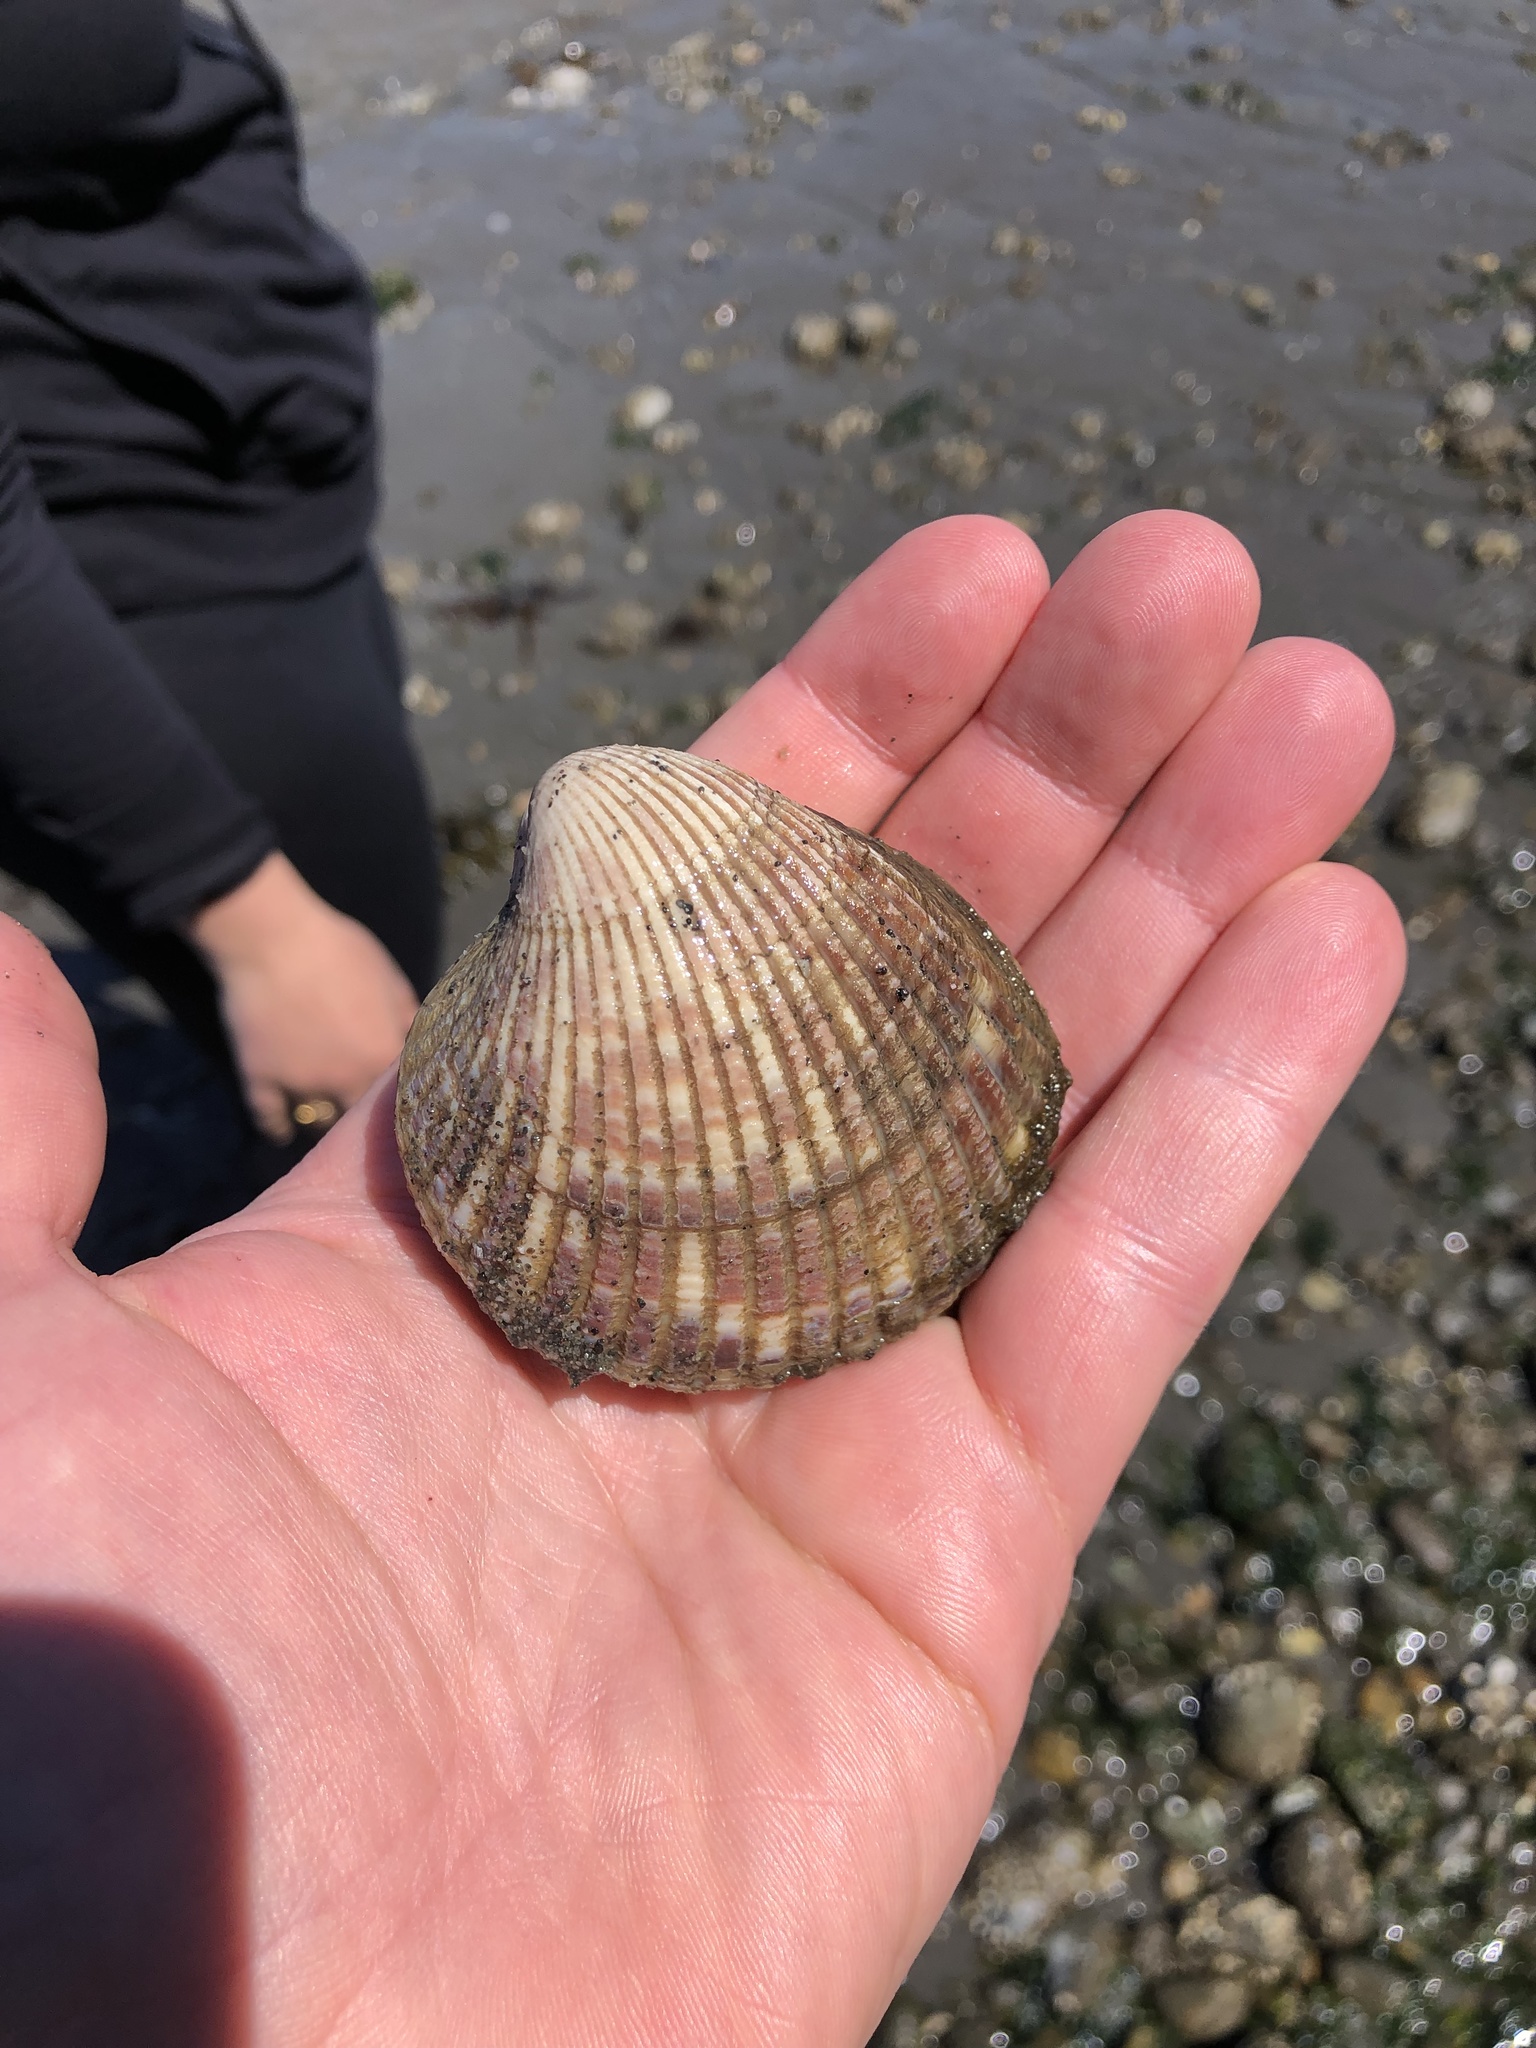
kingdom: Animalia
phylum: Mollusca
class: Bivalvia
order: Cardiida
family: Cardiidae
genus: Clinocardium
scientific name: Clinocardium nuttallii
